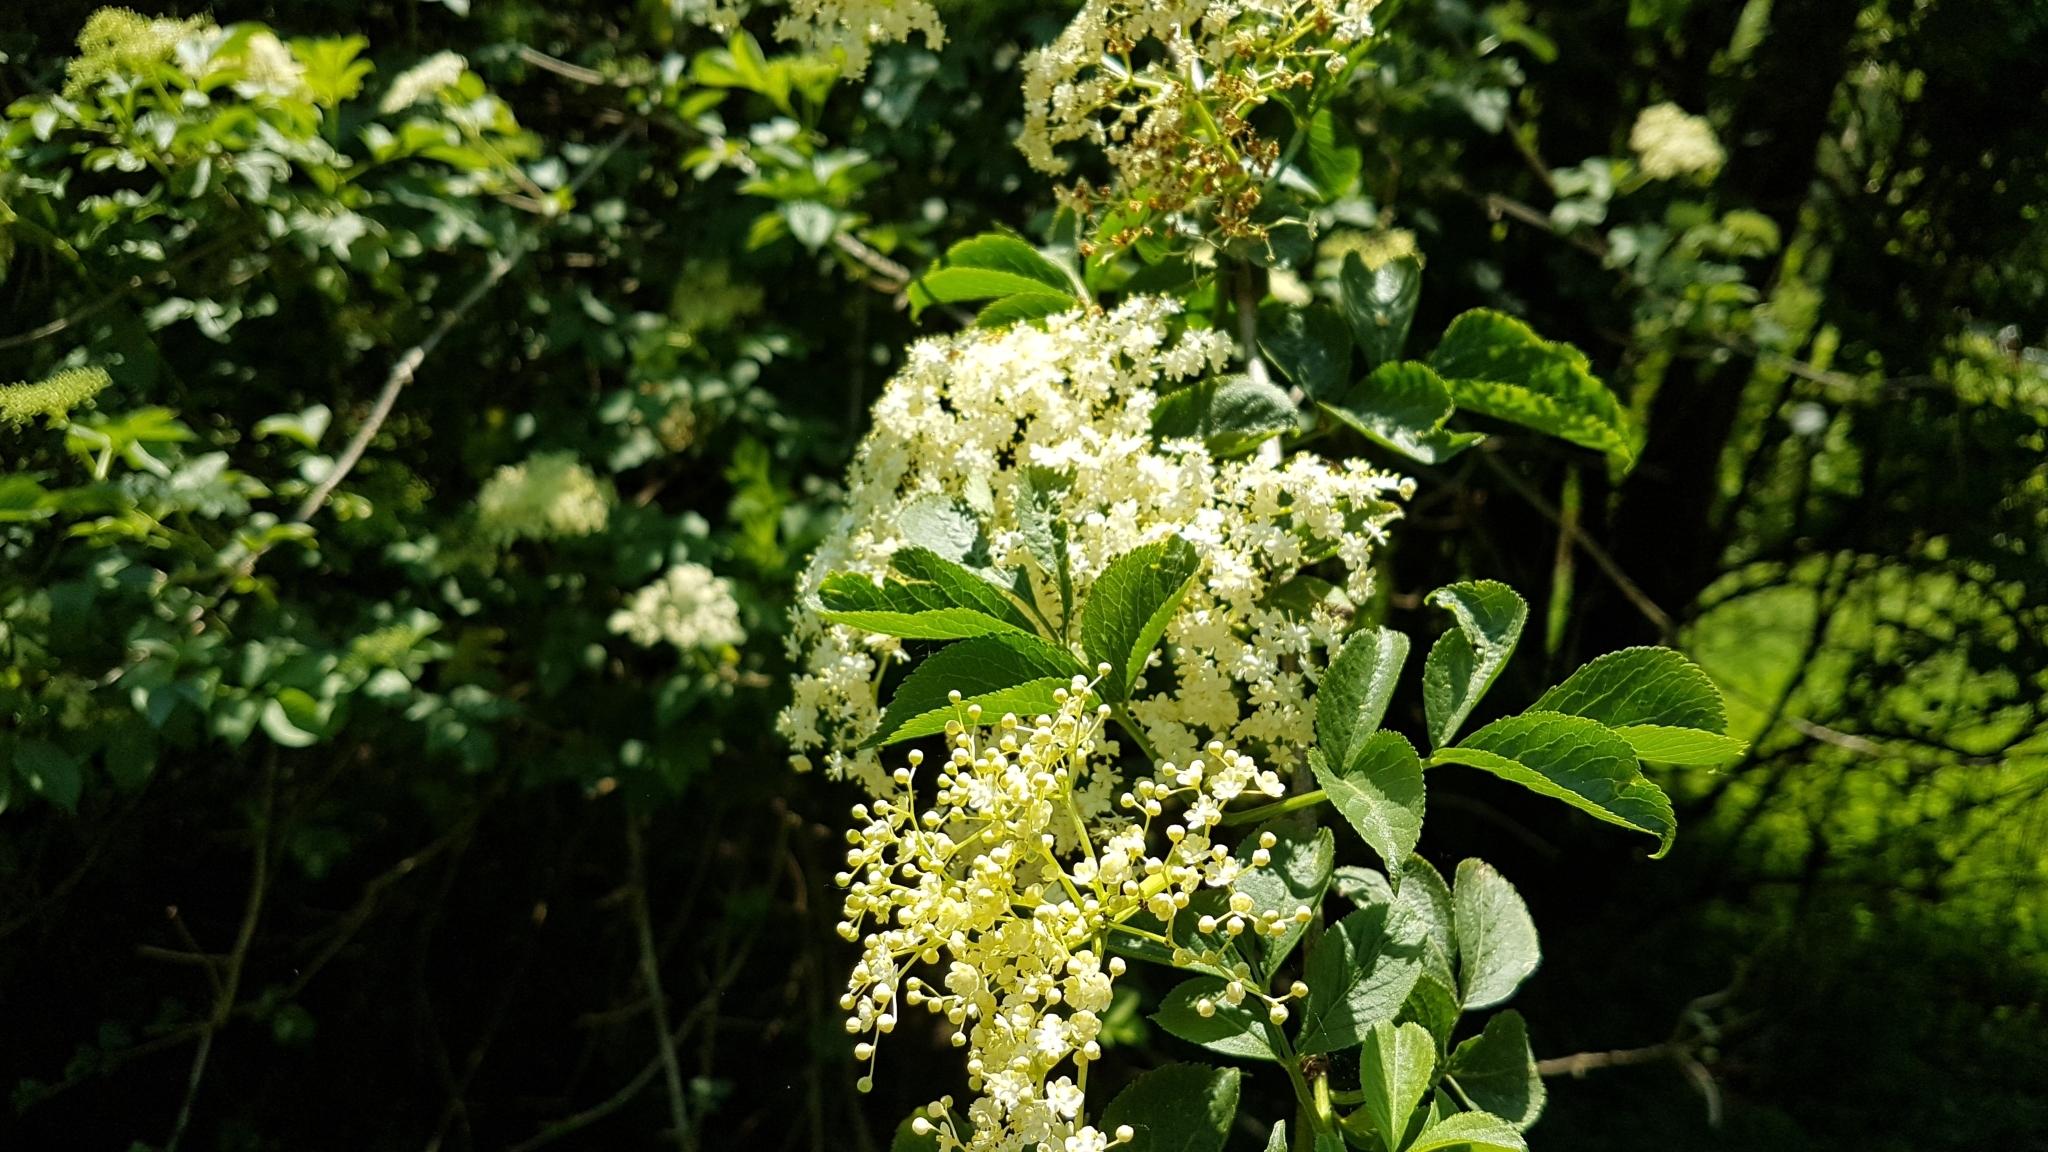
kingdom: Plantae
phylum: Tracheophyta
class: Magnoliopsida
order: Dipsacales
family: Viburnaceae
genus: Sambucus
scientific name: Sambucus nigra
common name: Elder
